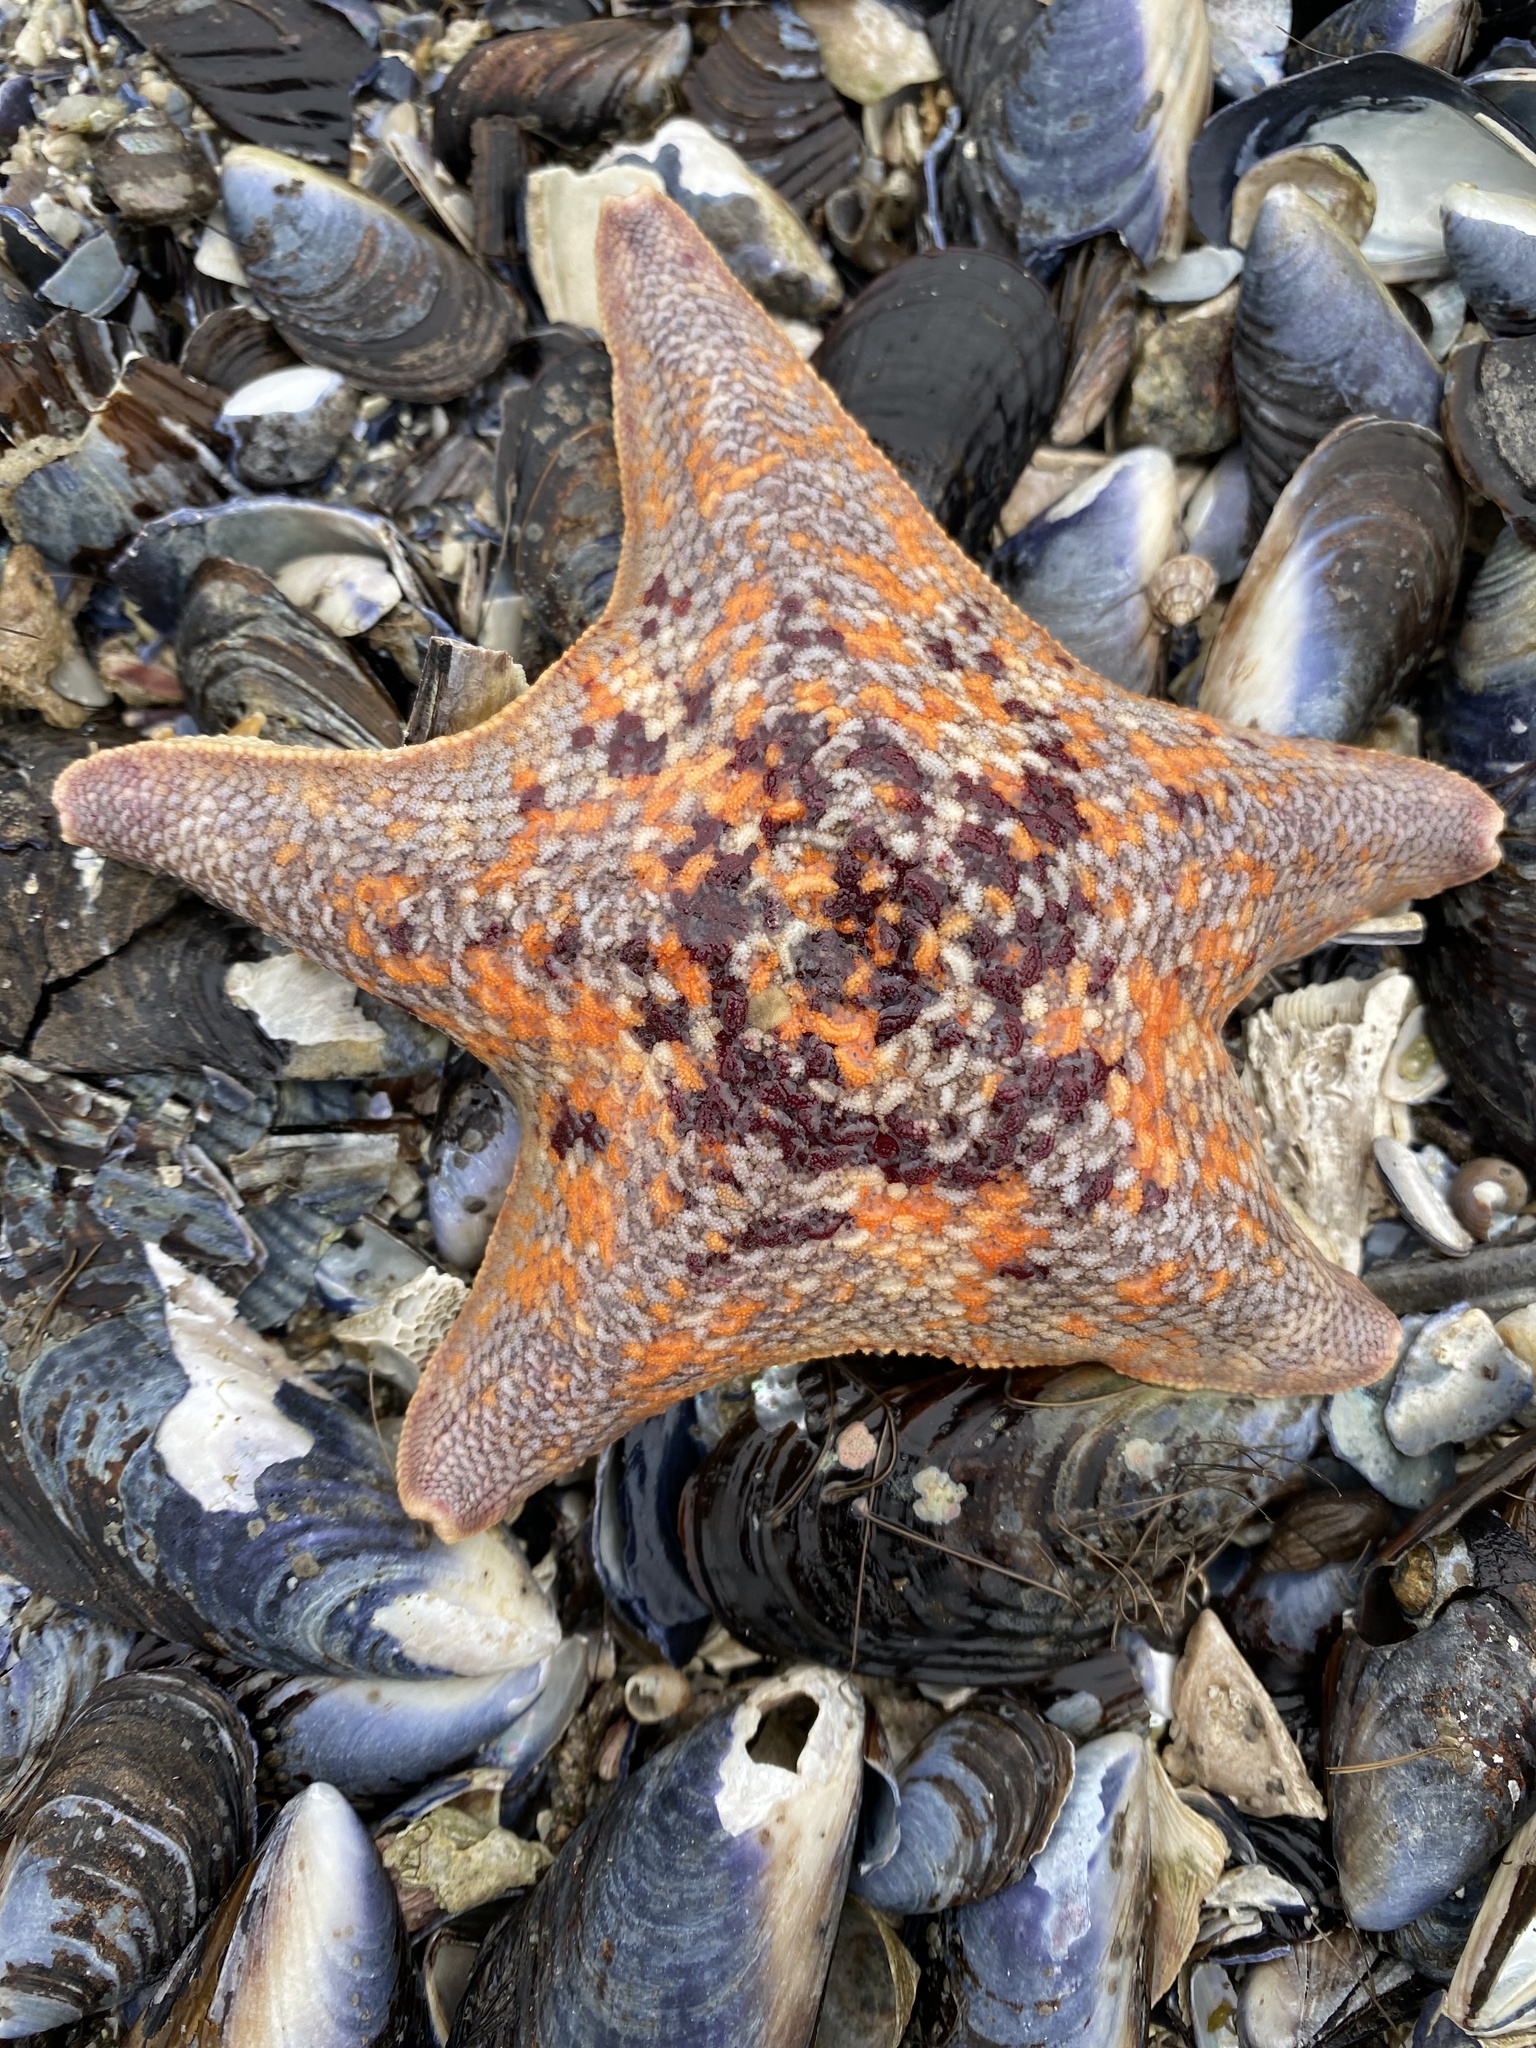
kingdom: Animalia
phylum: Echinodermata
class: Asteroidea
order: Valvatida
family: Asterinidae
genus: Patiria
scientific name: Patiria miniata
